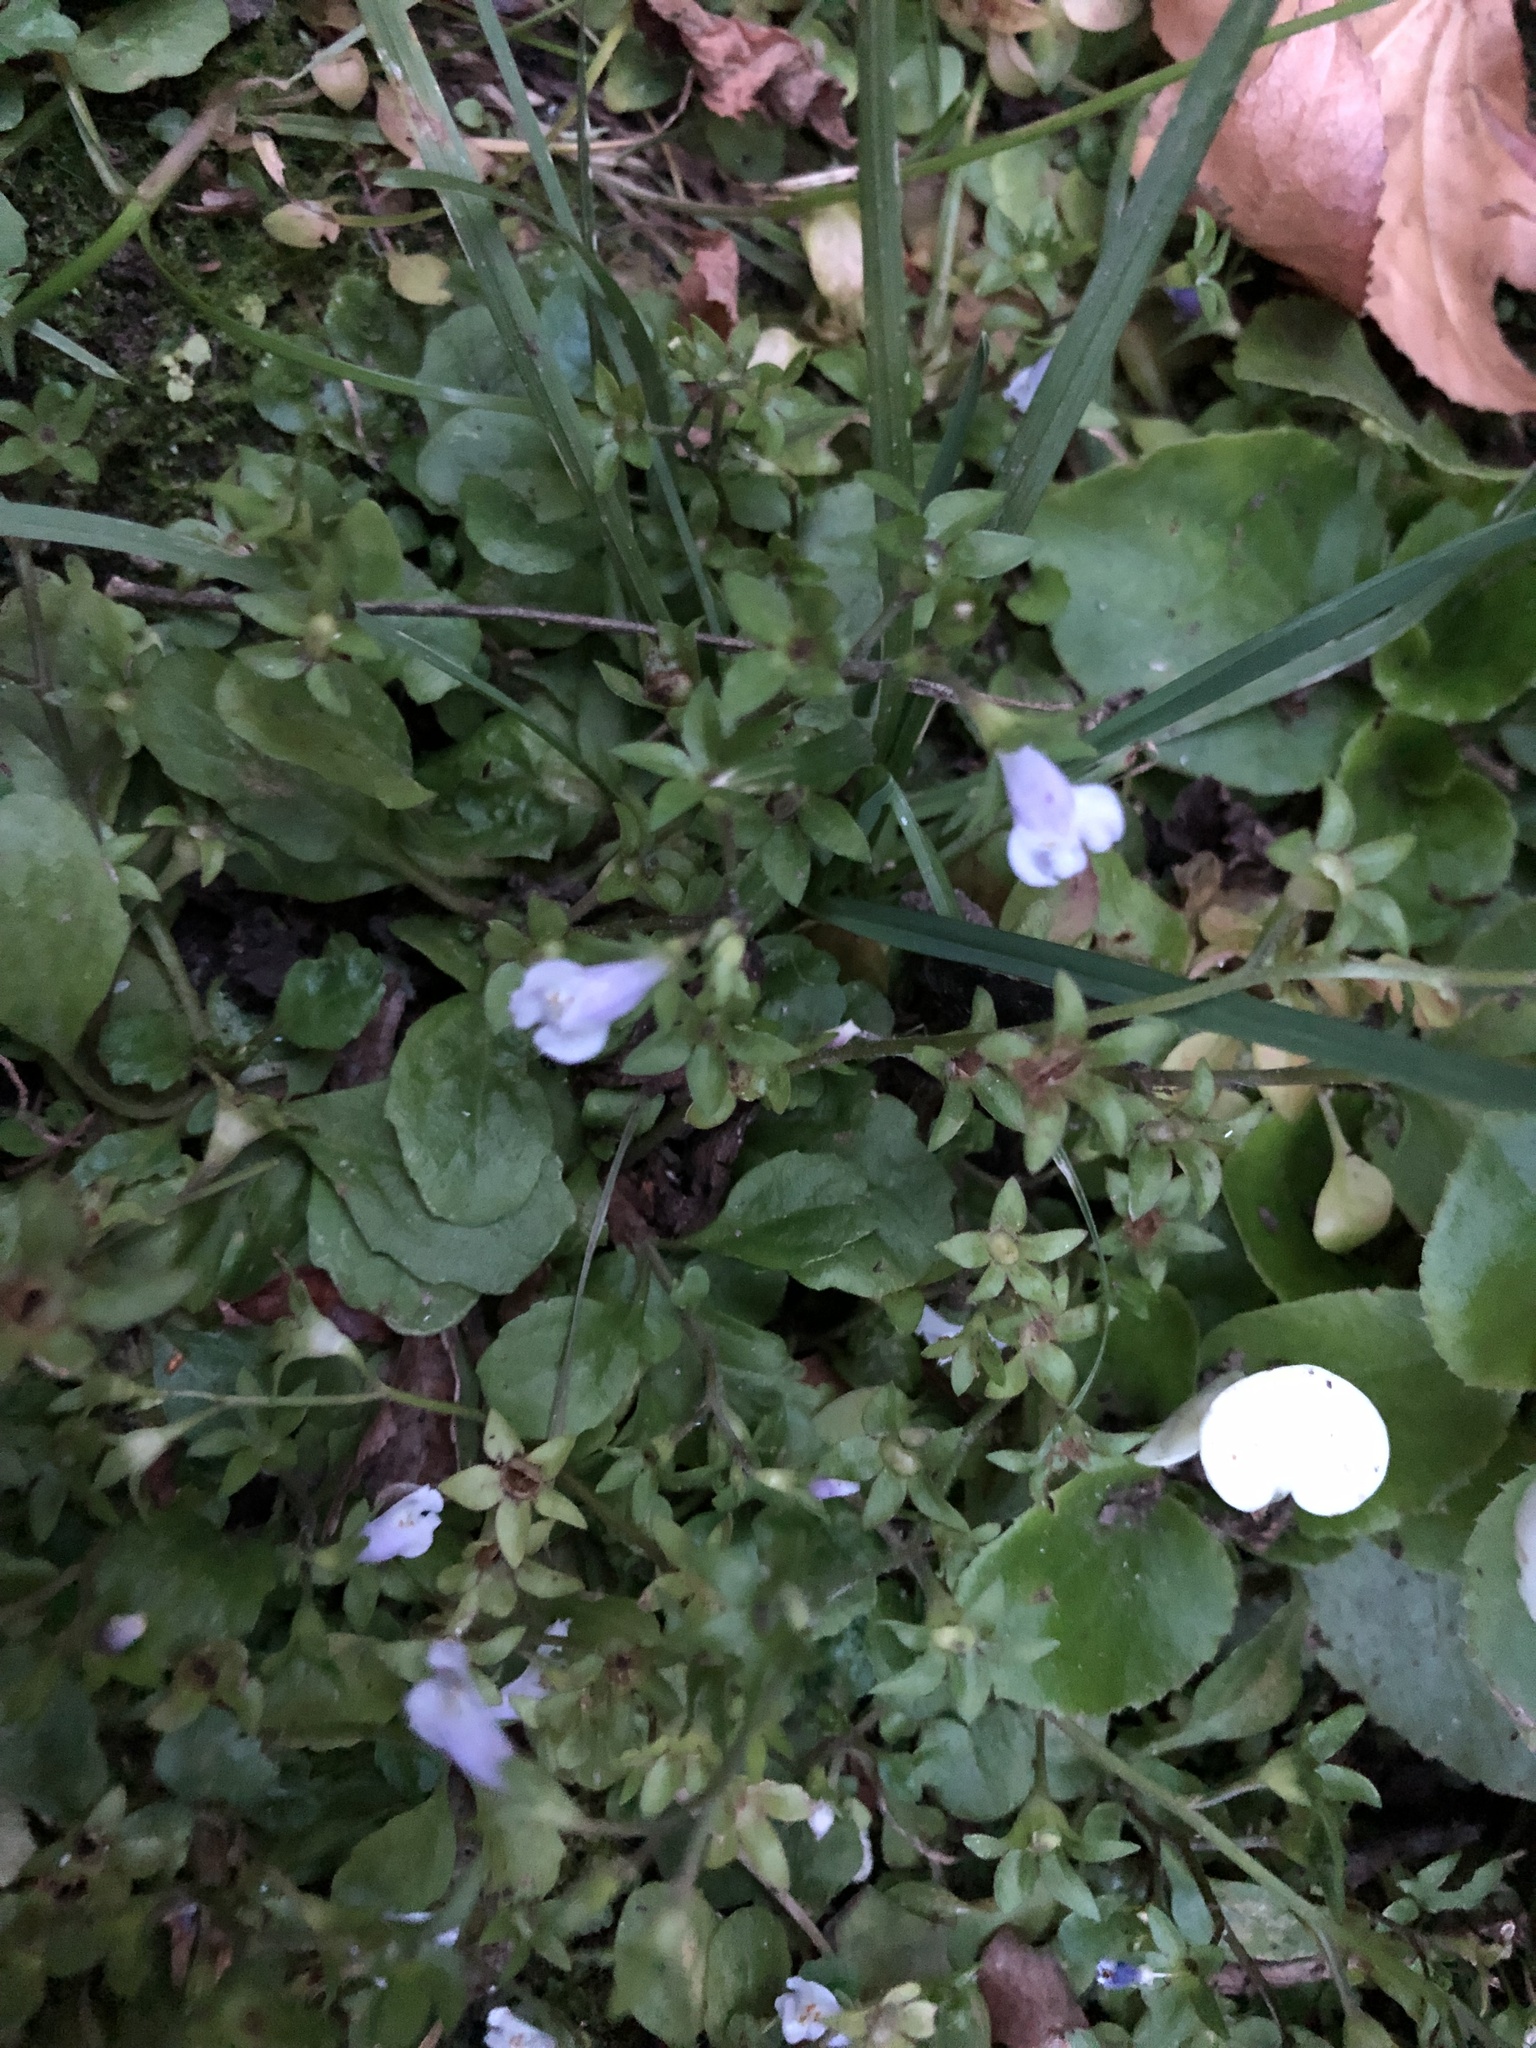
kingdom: Plantae
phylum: Tracheophyta
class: Magnoliopsida
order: Lamiales
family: Mazaceae
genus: Mazus
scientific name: Mazus pumilus
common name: Japanese mazus
